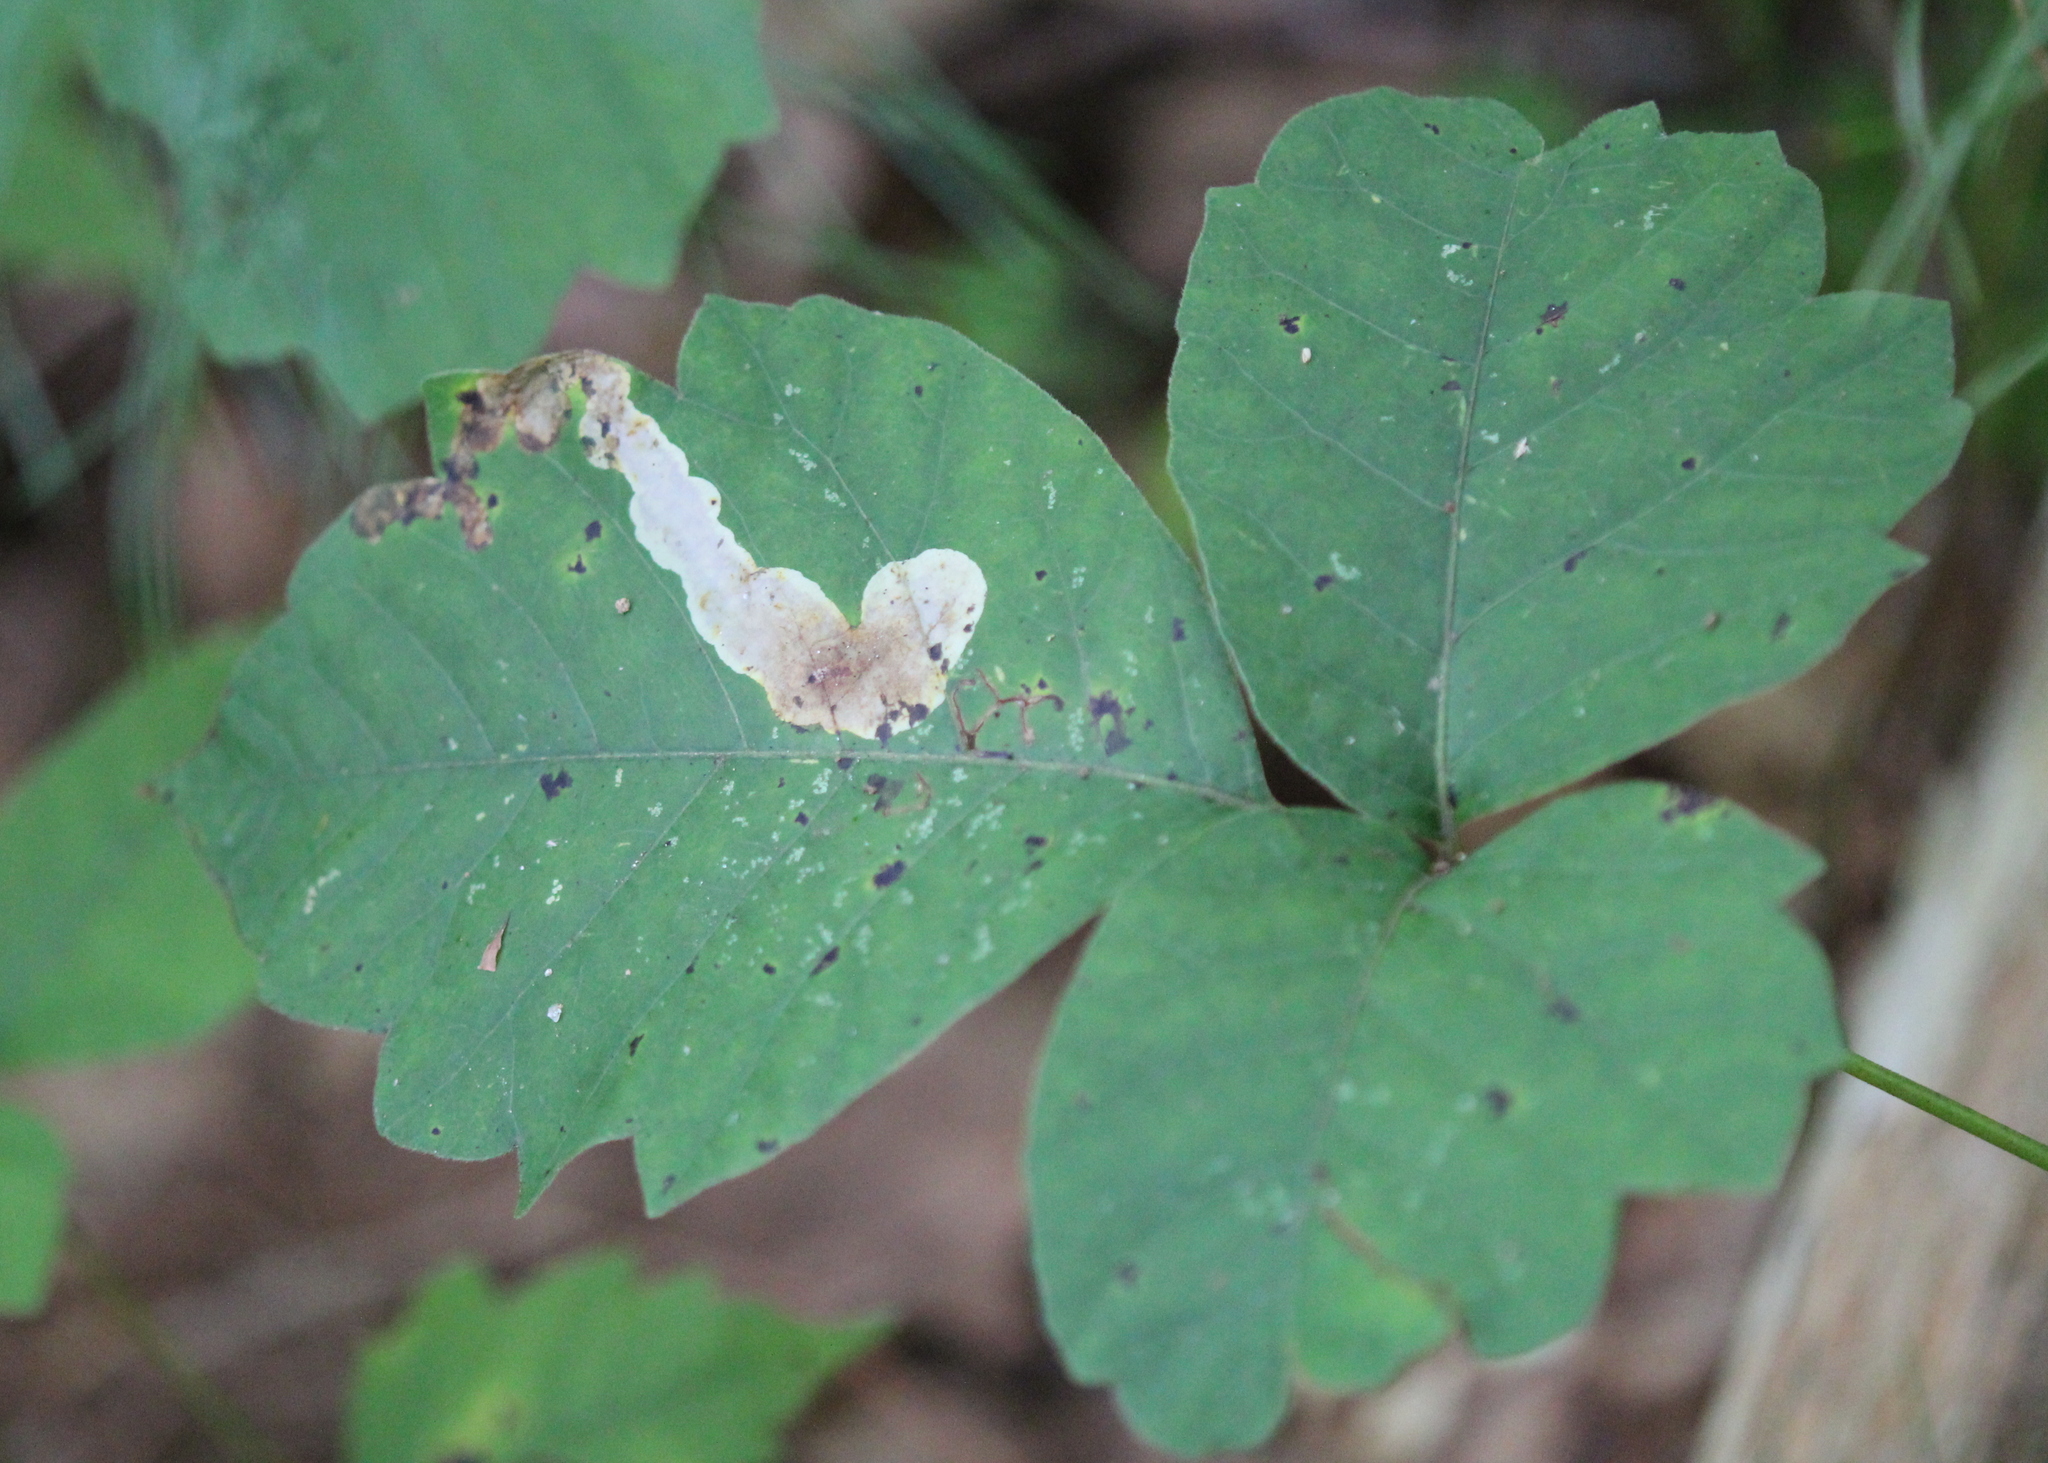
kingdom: Animalia
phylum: Arthropoda
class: Insecta
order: Lepidoptera
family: Gracillariidae
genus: Cameraria
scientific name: Cameraria guttifinitella
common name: Poison ivy leaf-miner moth
